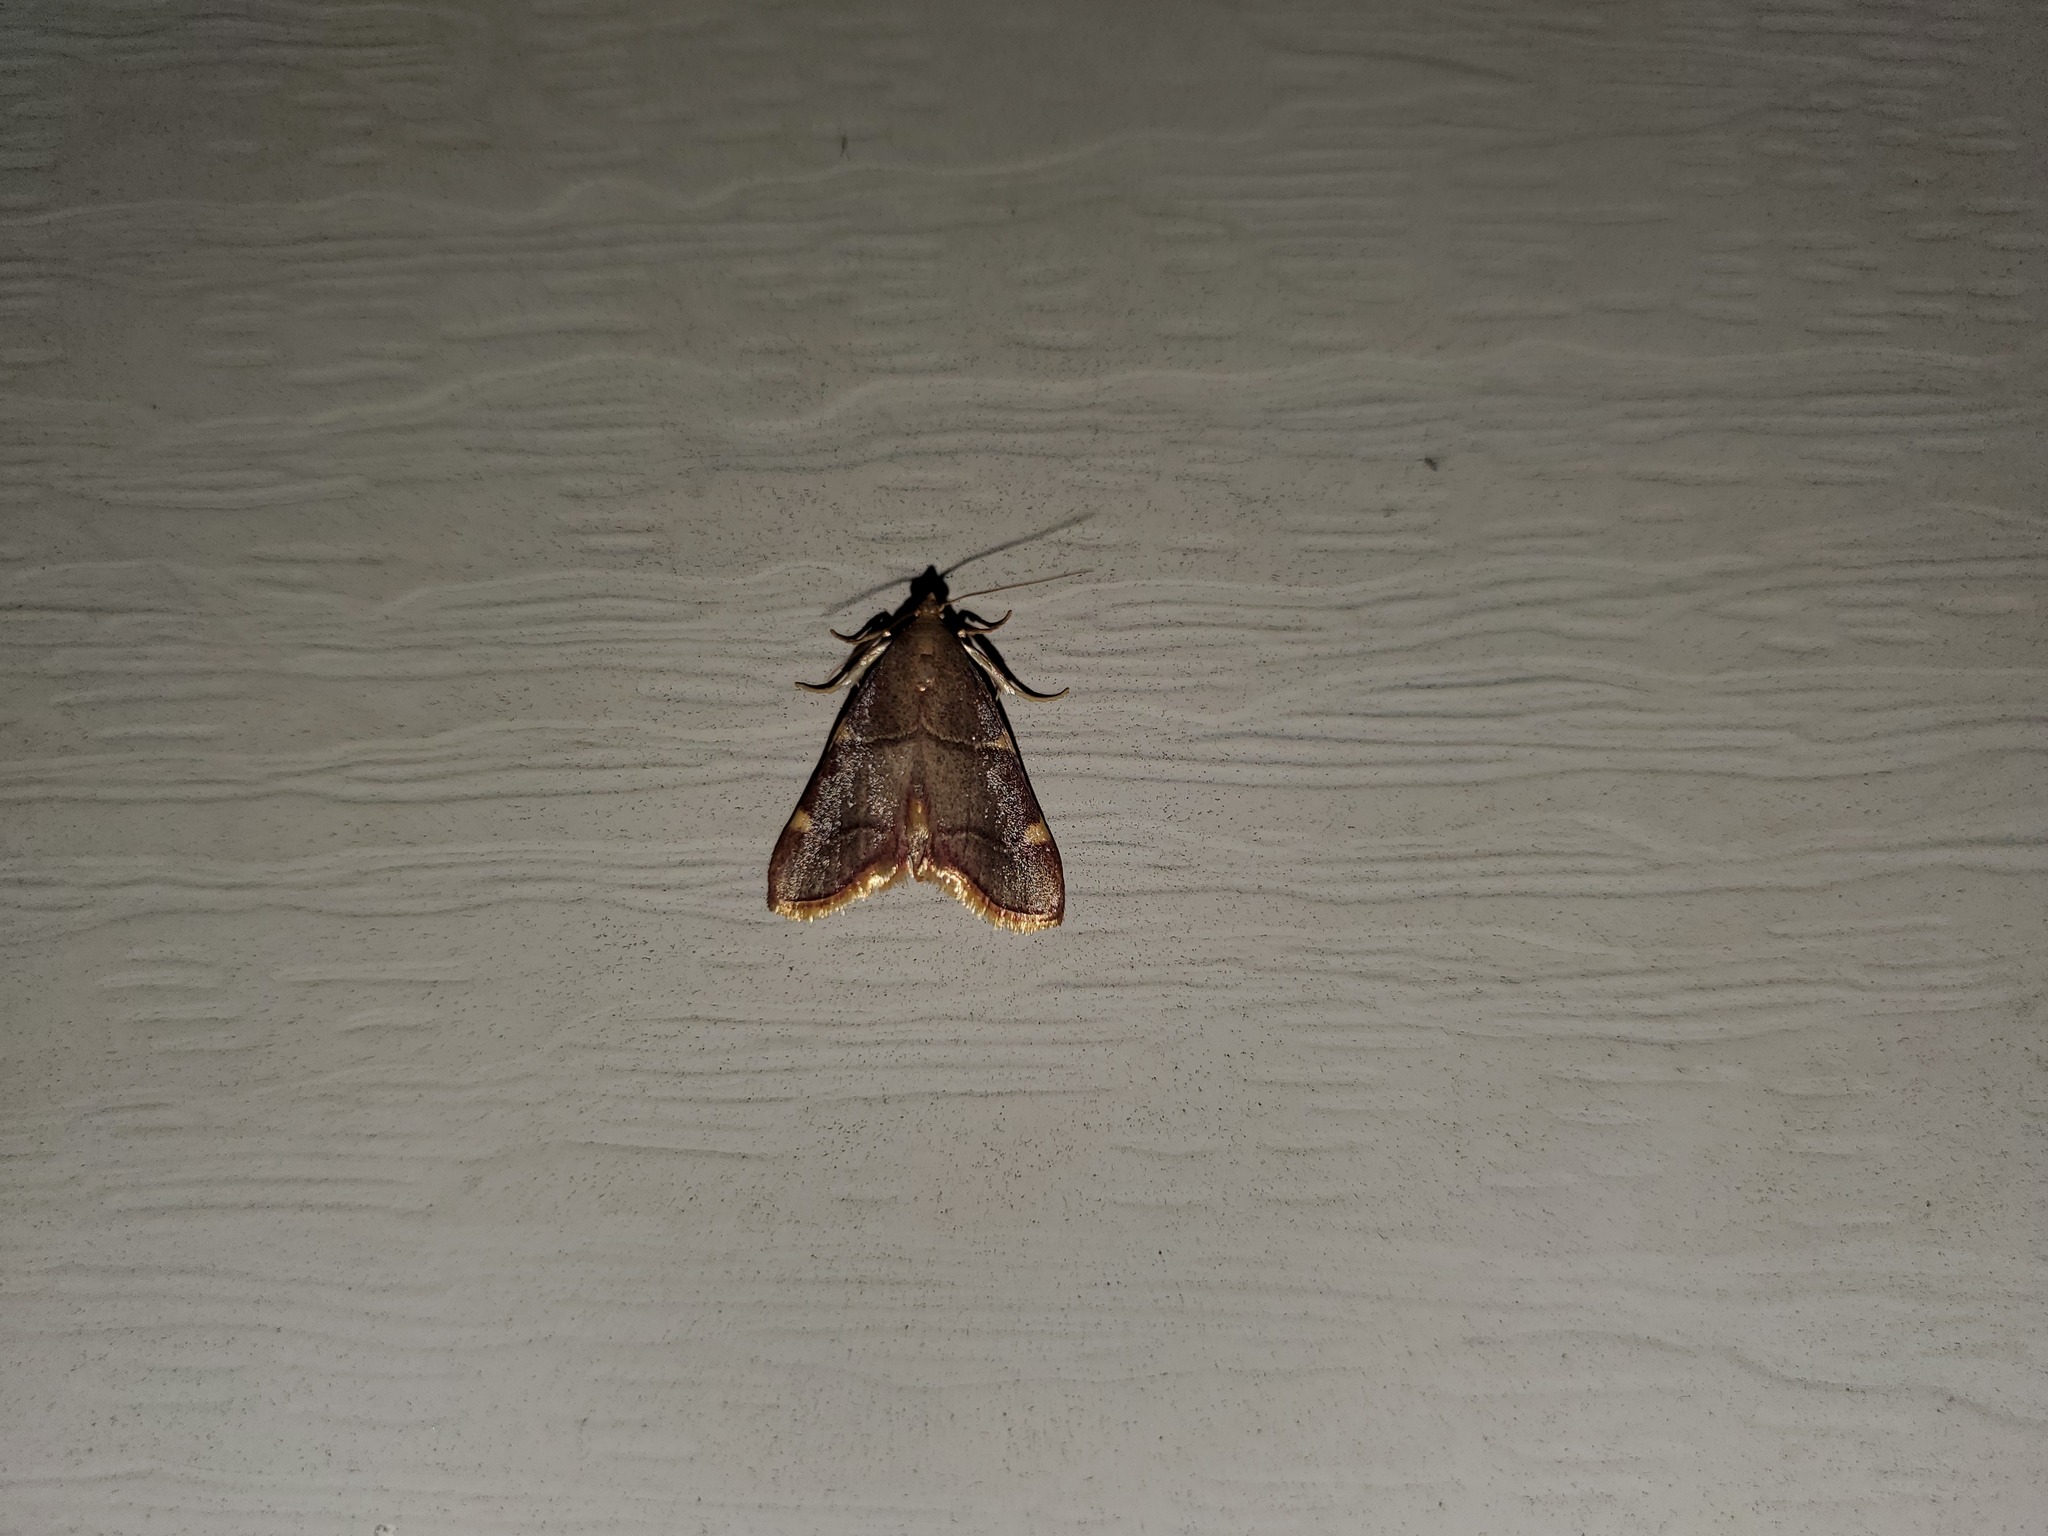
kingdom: Animalia
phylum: Arthropoda
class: Insecta
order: Lepidoptera
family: Pyralidae
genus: Hypsopygia
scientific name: Hypsopygia olinalis
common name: Yellow-fringed dolichomia moth
